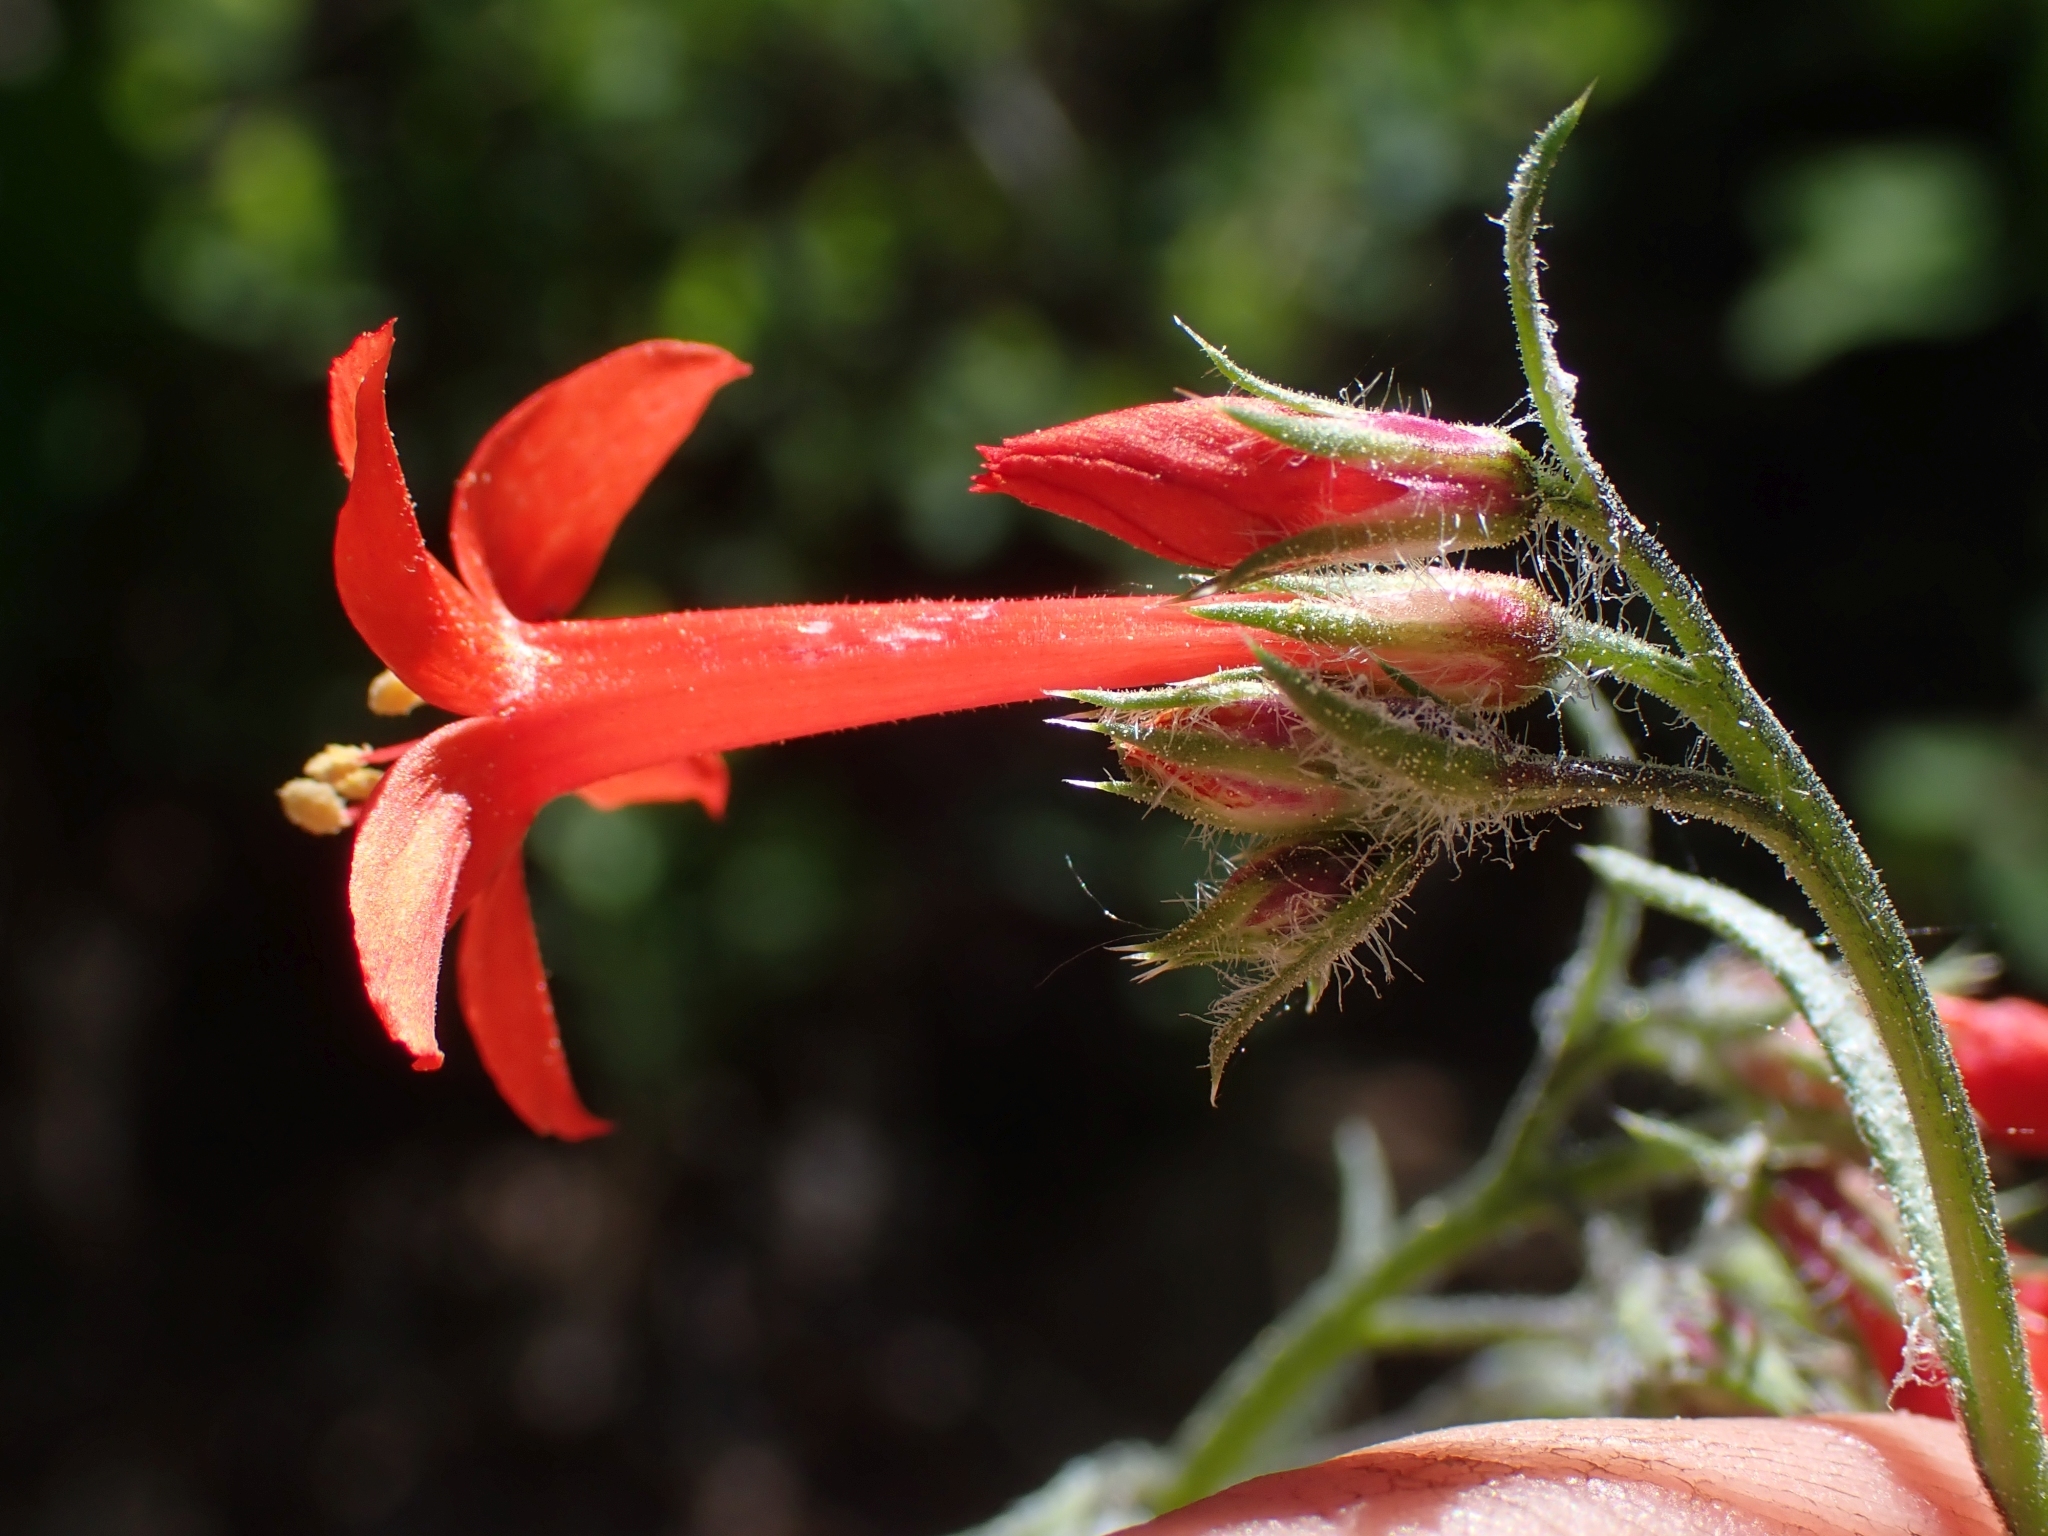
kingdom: Plantae
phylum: Tracheophyta
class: Magnoliopsida
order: Ericales
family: Polemoniaceae
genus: Ipomopsis
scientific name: Ipomopsis aggregata
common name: Scarlet gilia
